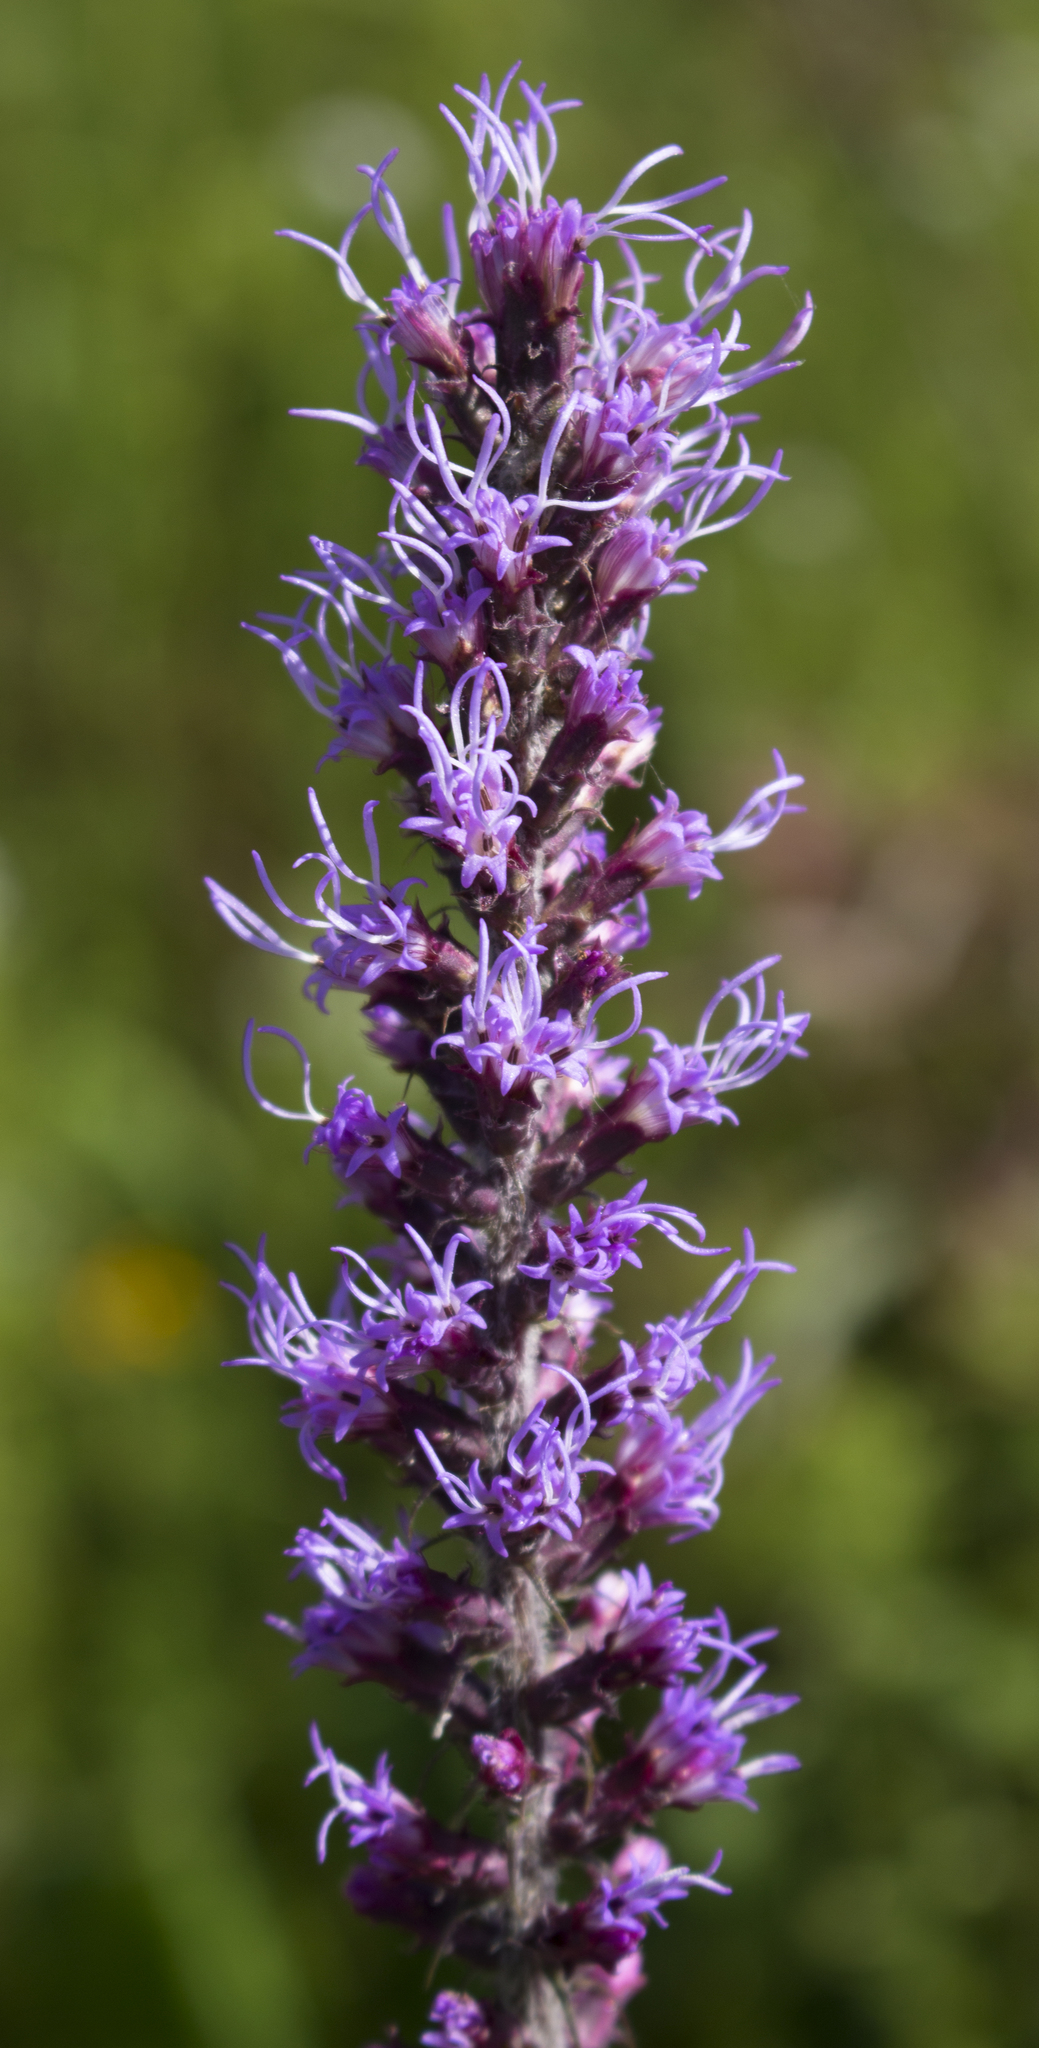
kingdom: Plantae
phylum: Tracheophyta
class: Magnoliopsida
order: Asterales
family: Asteraceae
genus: Liatris
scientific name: Liatris pycnostachya
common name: Cattail gayfeather
